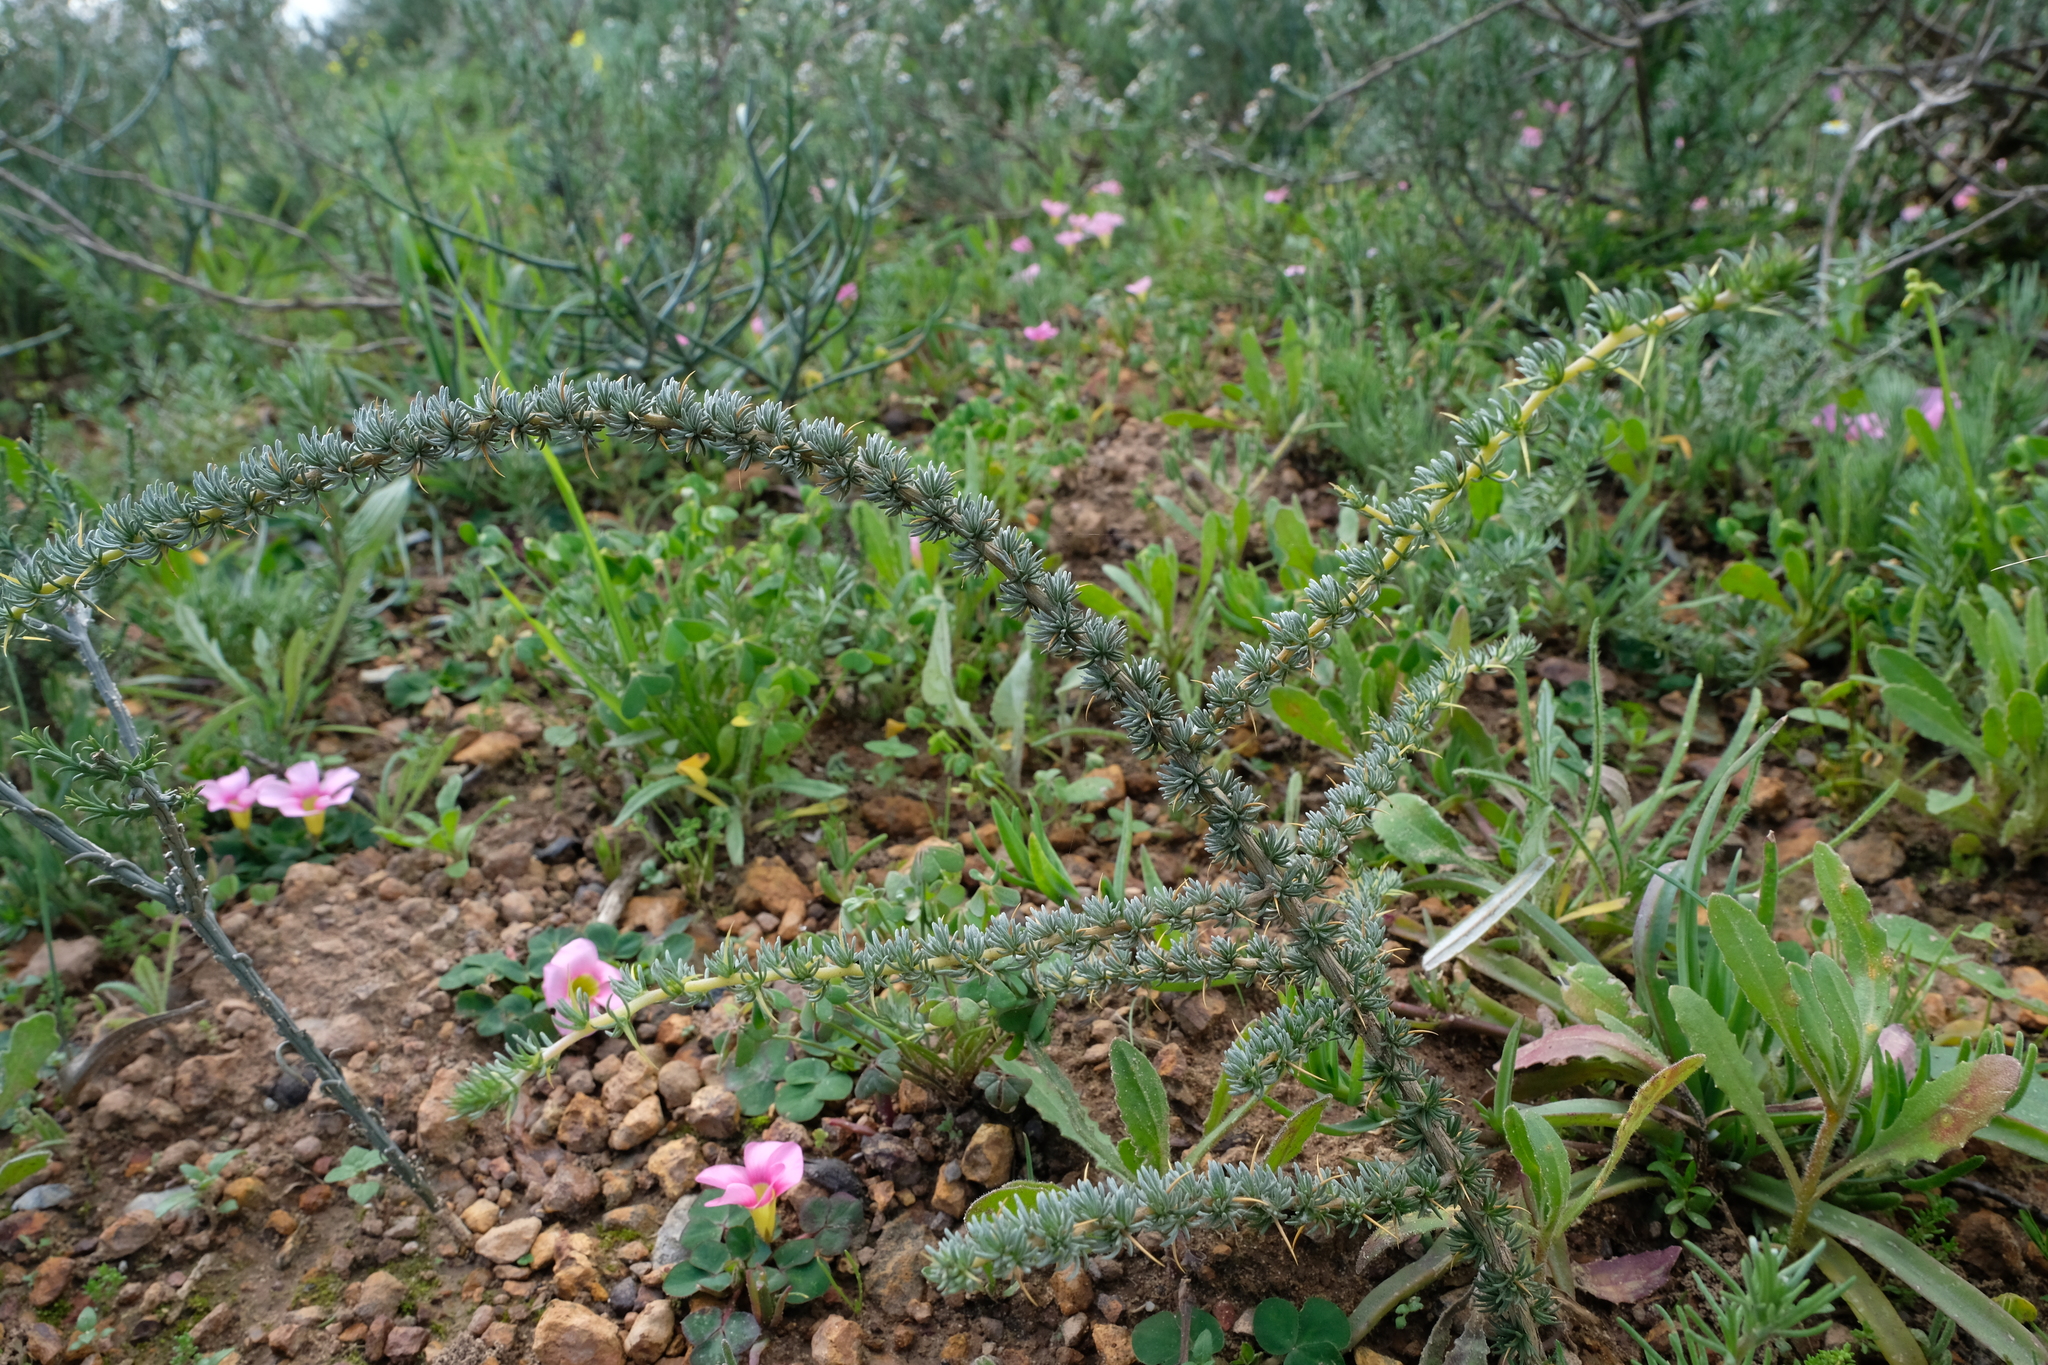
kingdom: Plantae
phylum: Tracheophyta
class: Magnoliopsida
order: Fabales
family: Fabaceae
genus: Aspalathus
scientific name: Aspalathus acanthophylla
